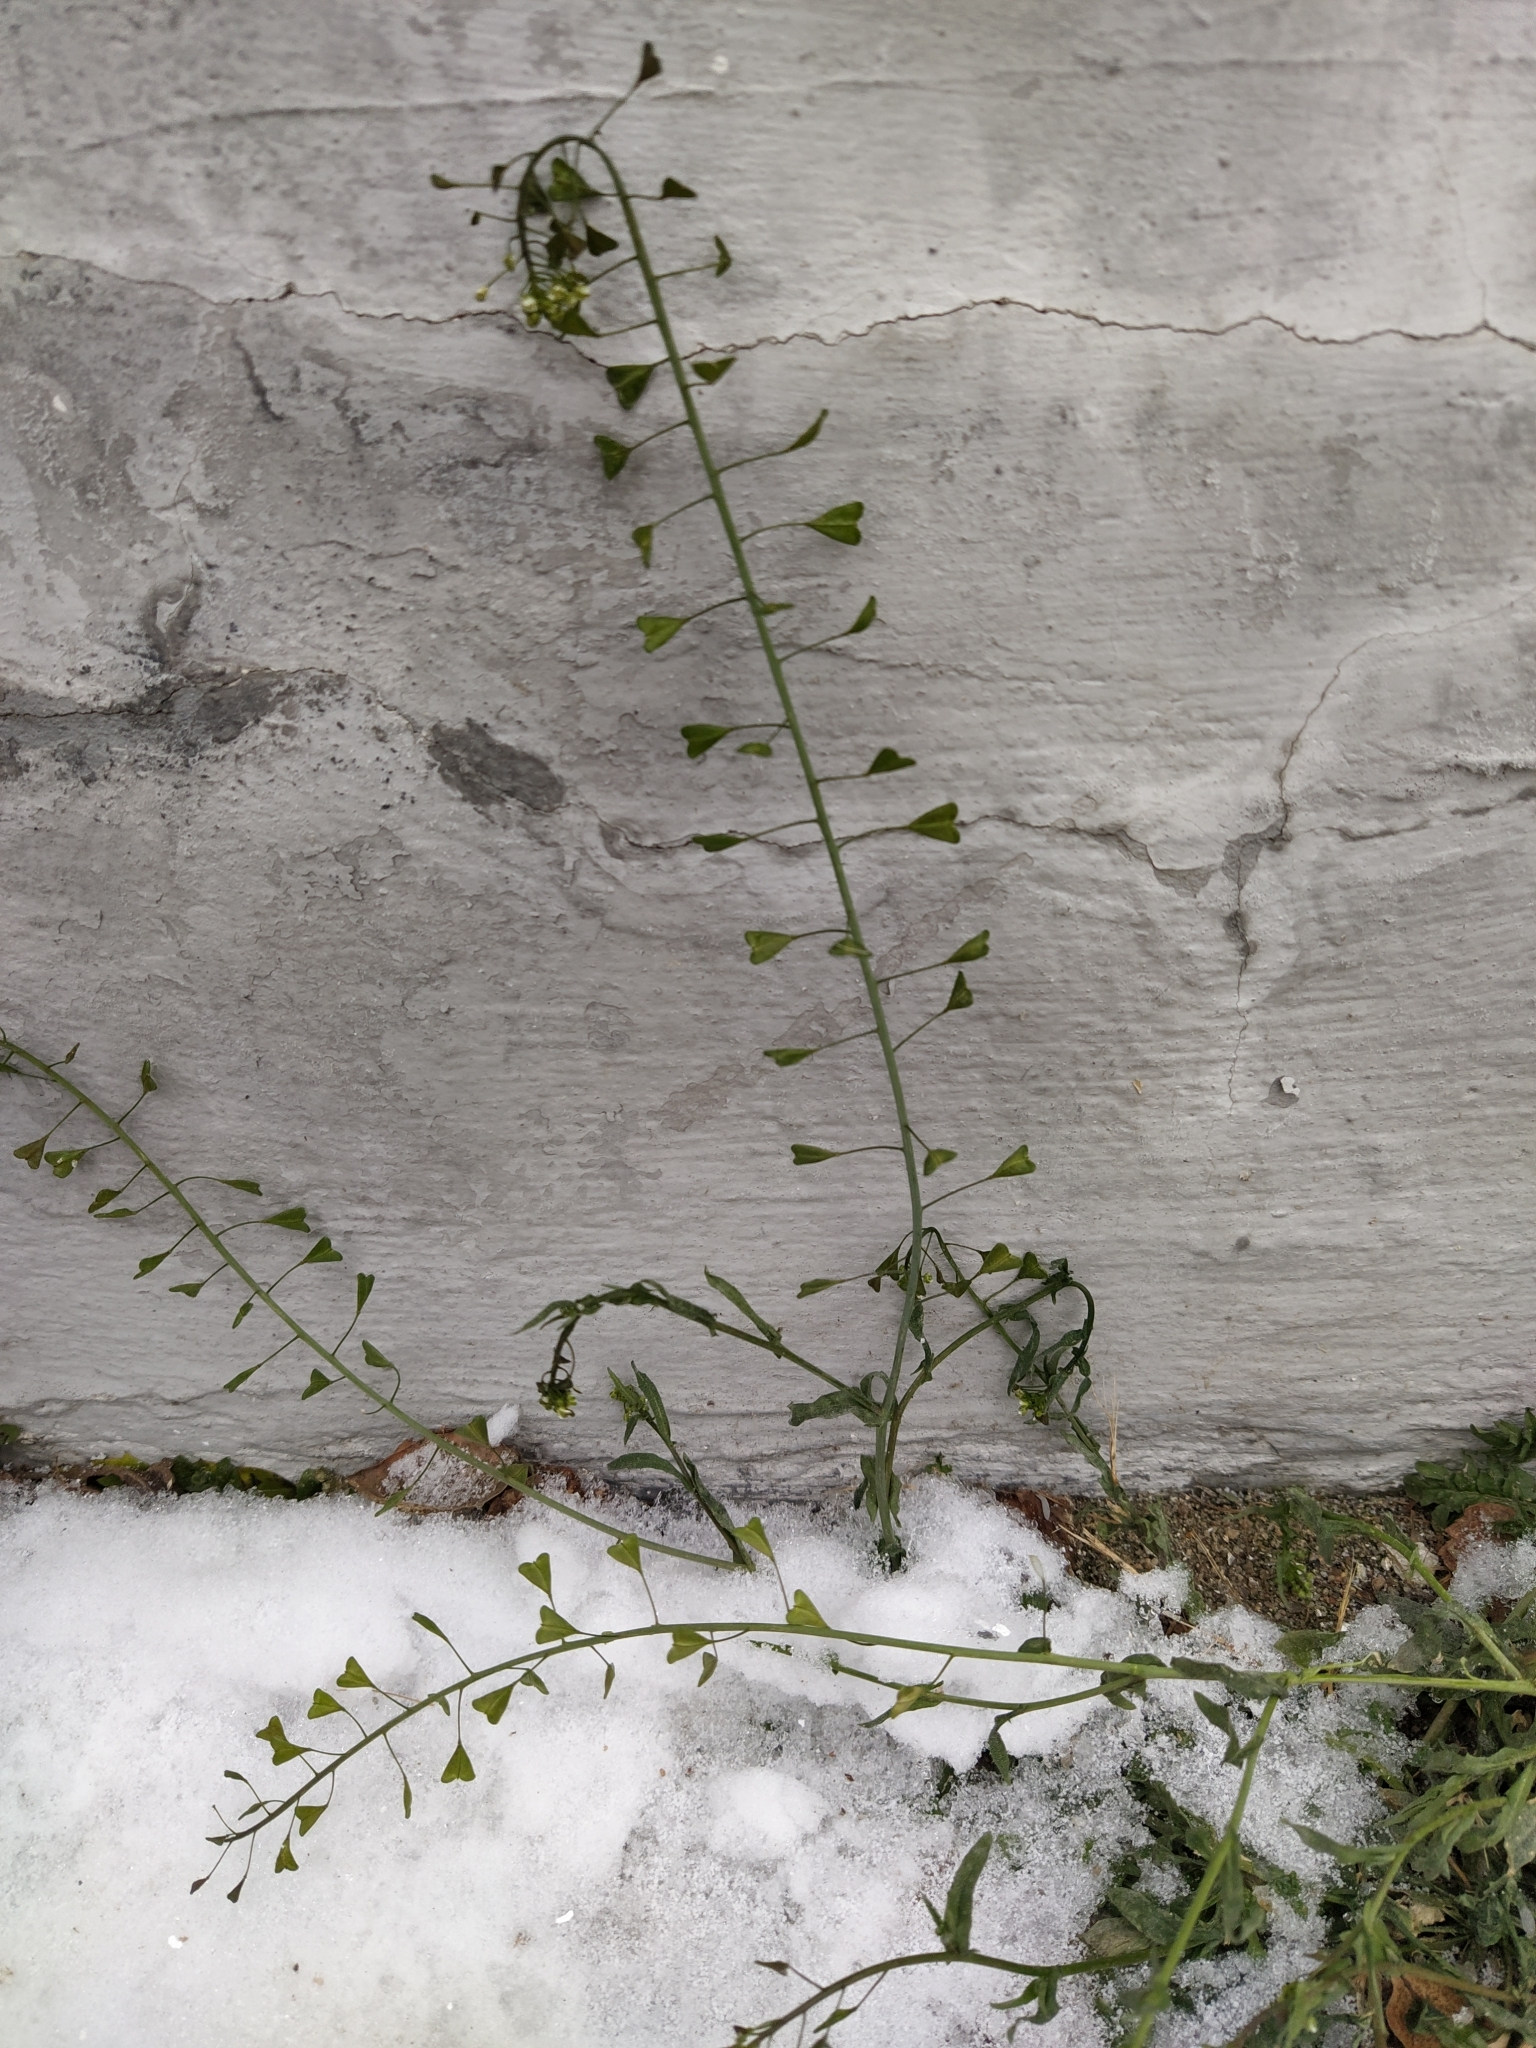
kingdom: Plantae
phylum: Tracheophyta
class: Magnoliopsida
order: Brassicales
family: Brassicaceae
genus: Capsella
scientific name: Capsella bursa-pastoris
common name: Shepherd's purse
